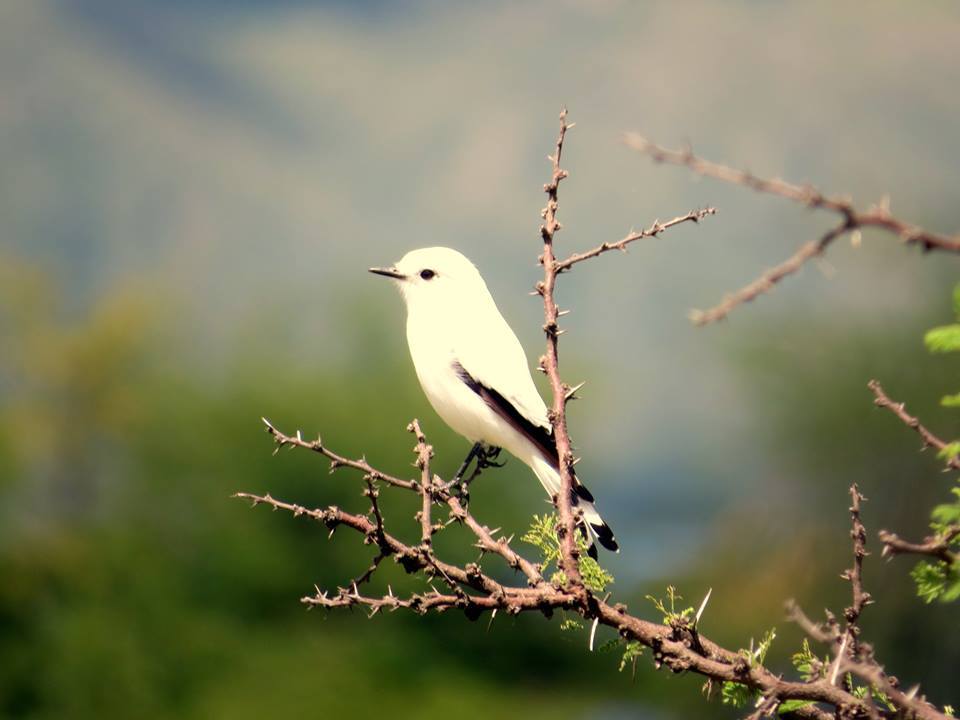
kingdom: Animalia
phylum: Chordata
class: Aves
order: Passeriformes
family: Tyrannidae
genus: Xolmis
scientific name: Xolmis irupero
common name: White monjita
